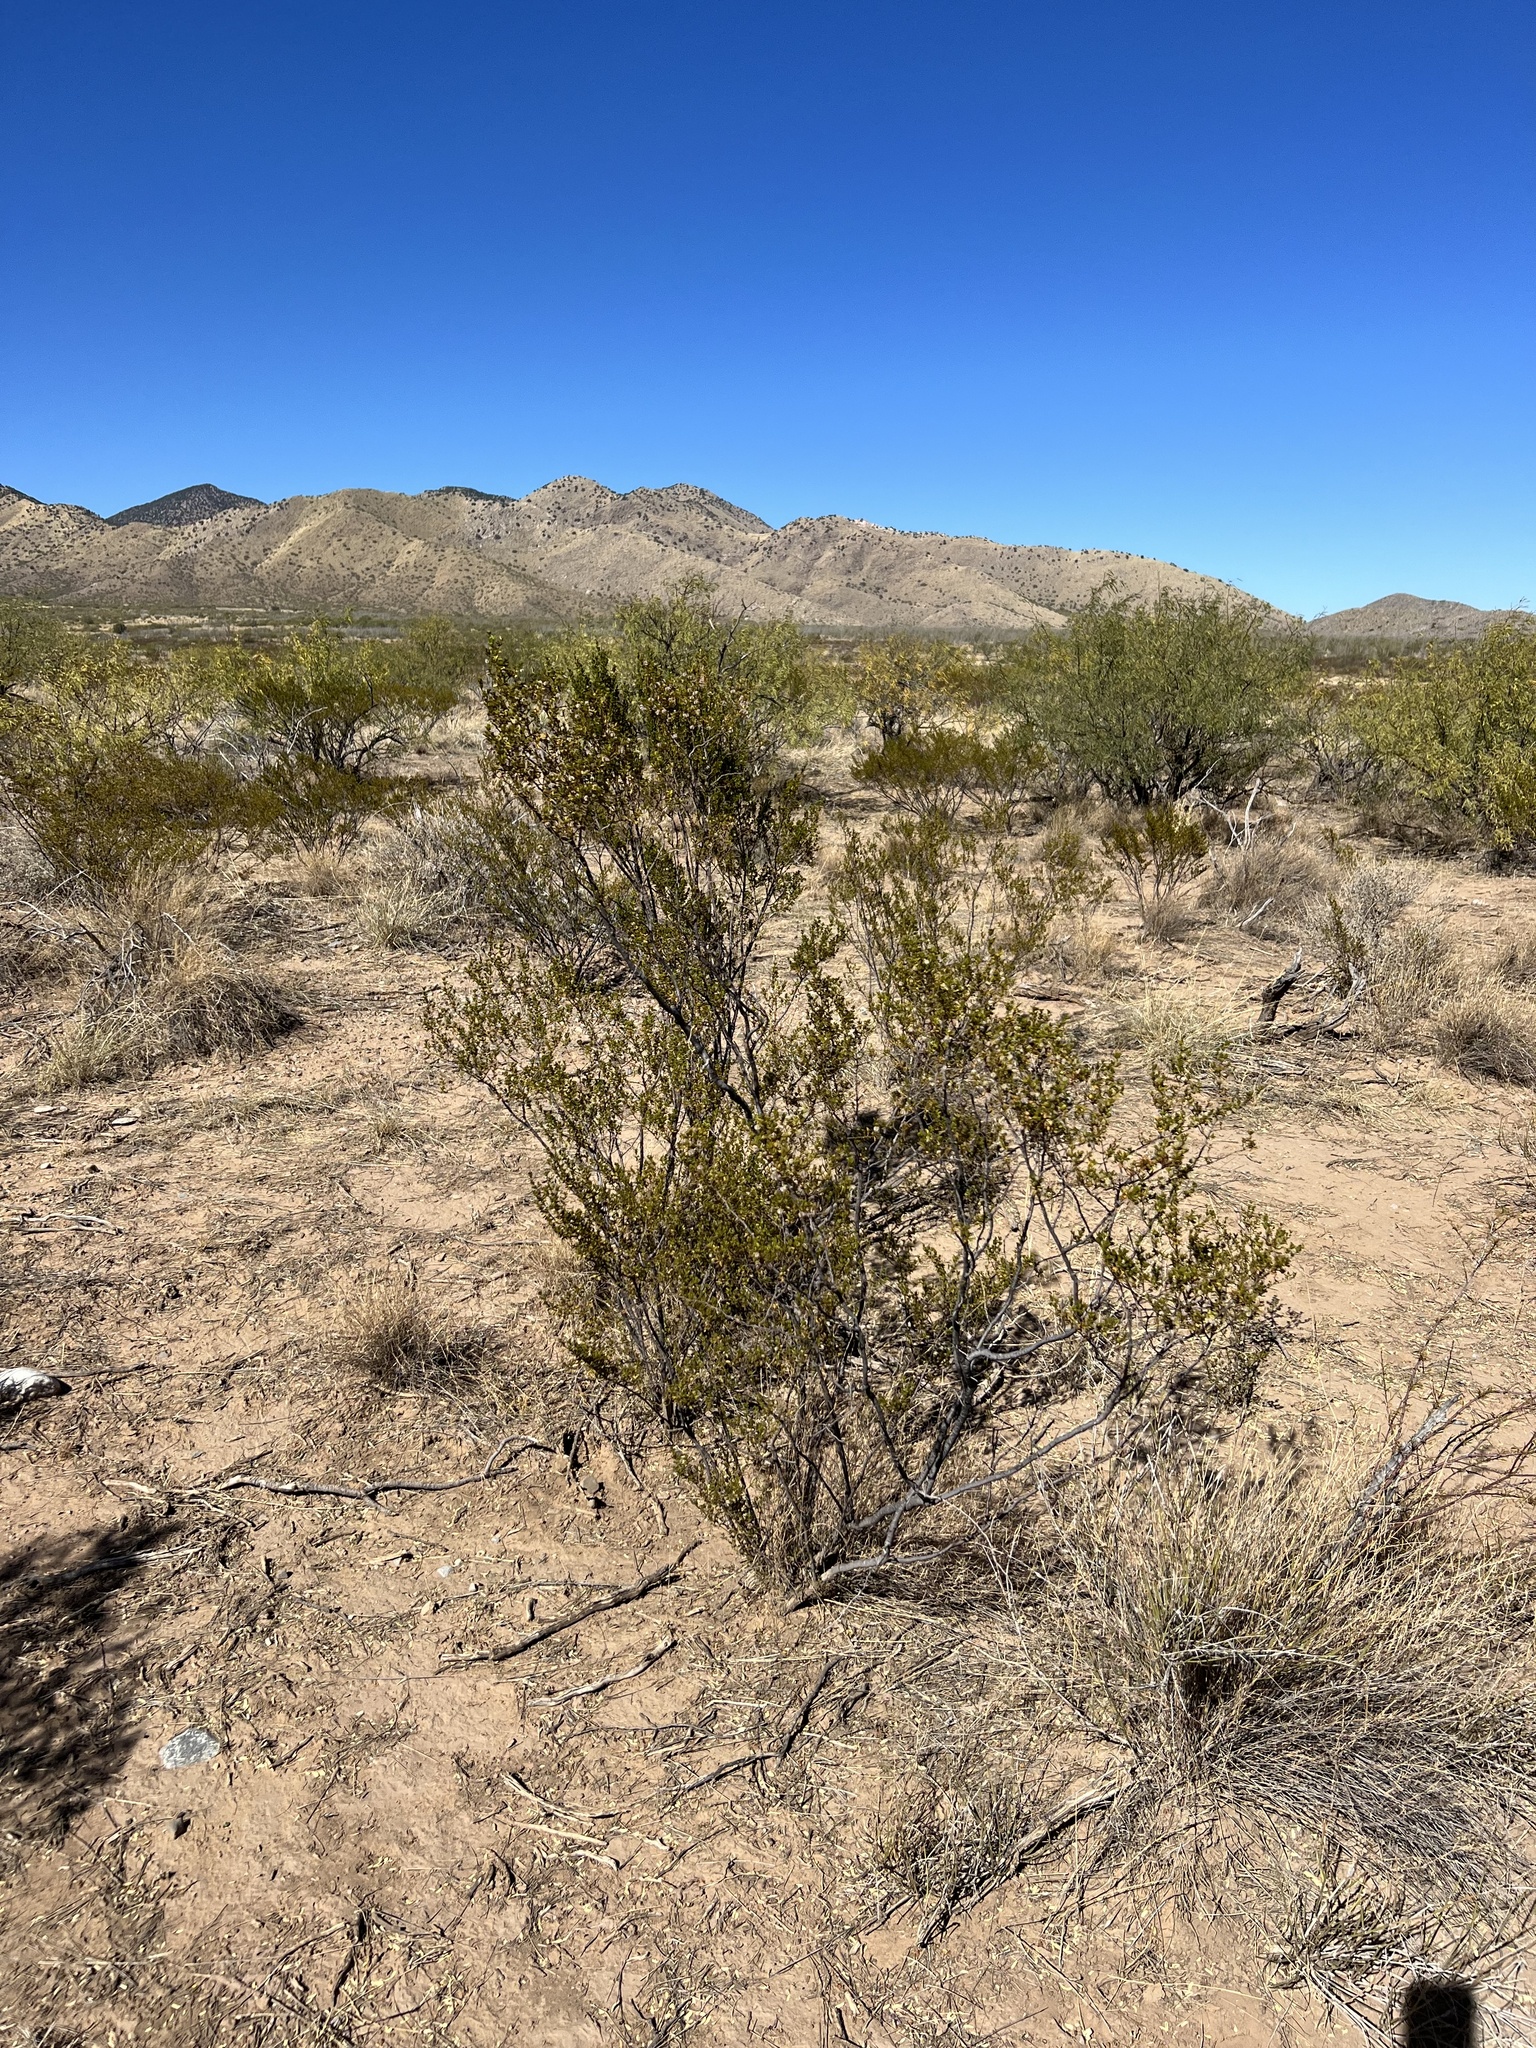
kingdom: Plantae
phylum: Tracheophyta
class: Magnoliopsida
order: Zygophyllales
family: Zygophyllaceae
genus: Larrea
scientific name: Larrea tridentata
